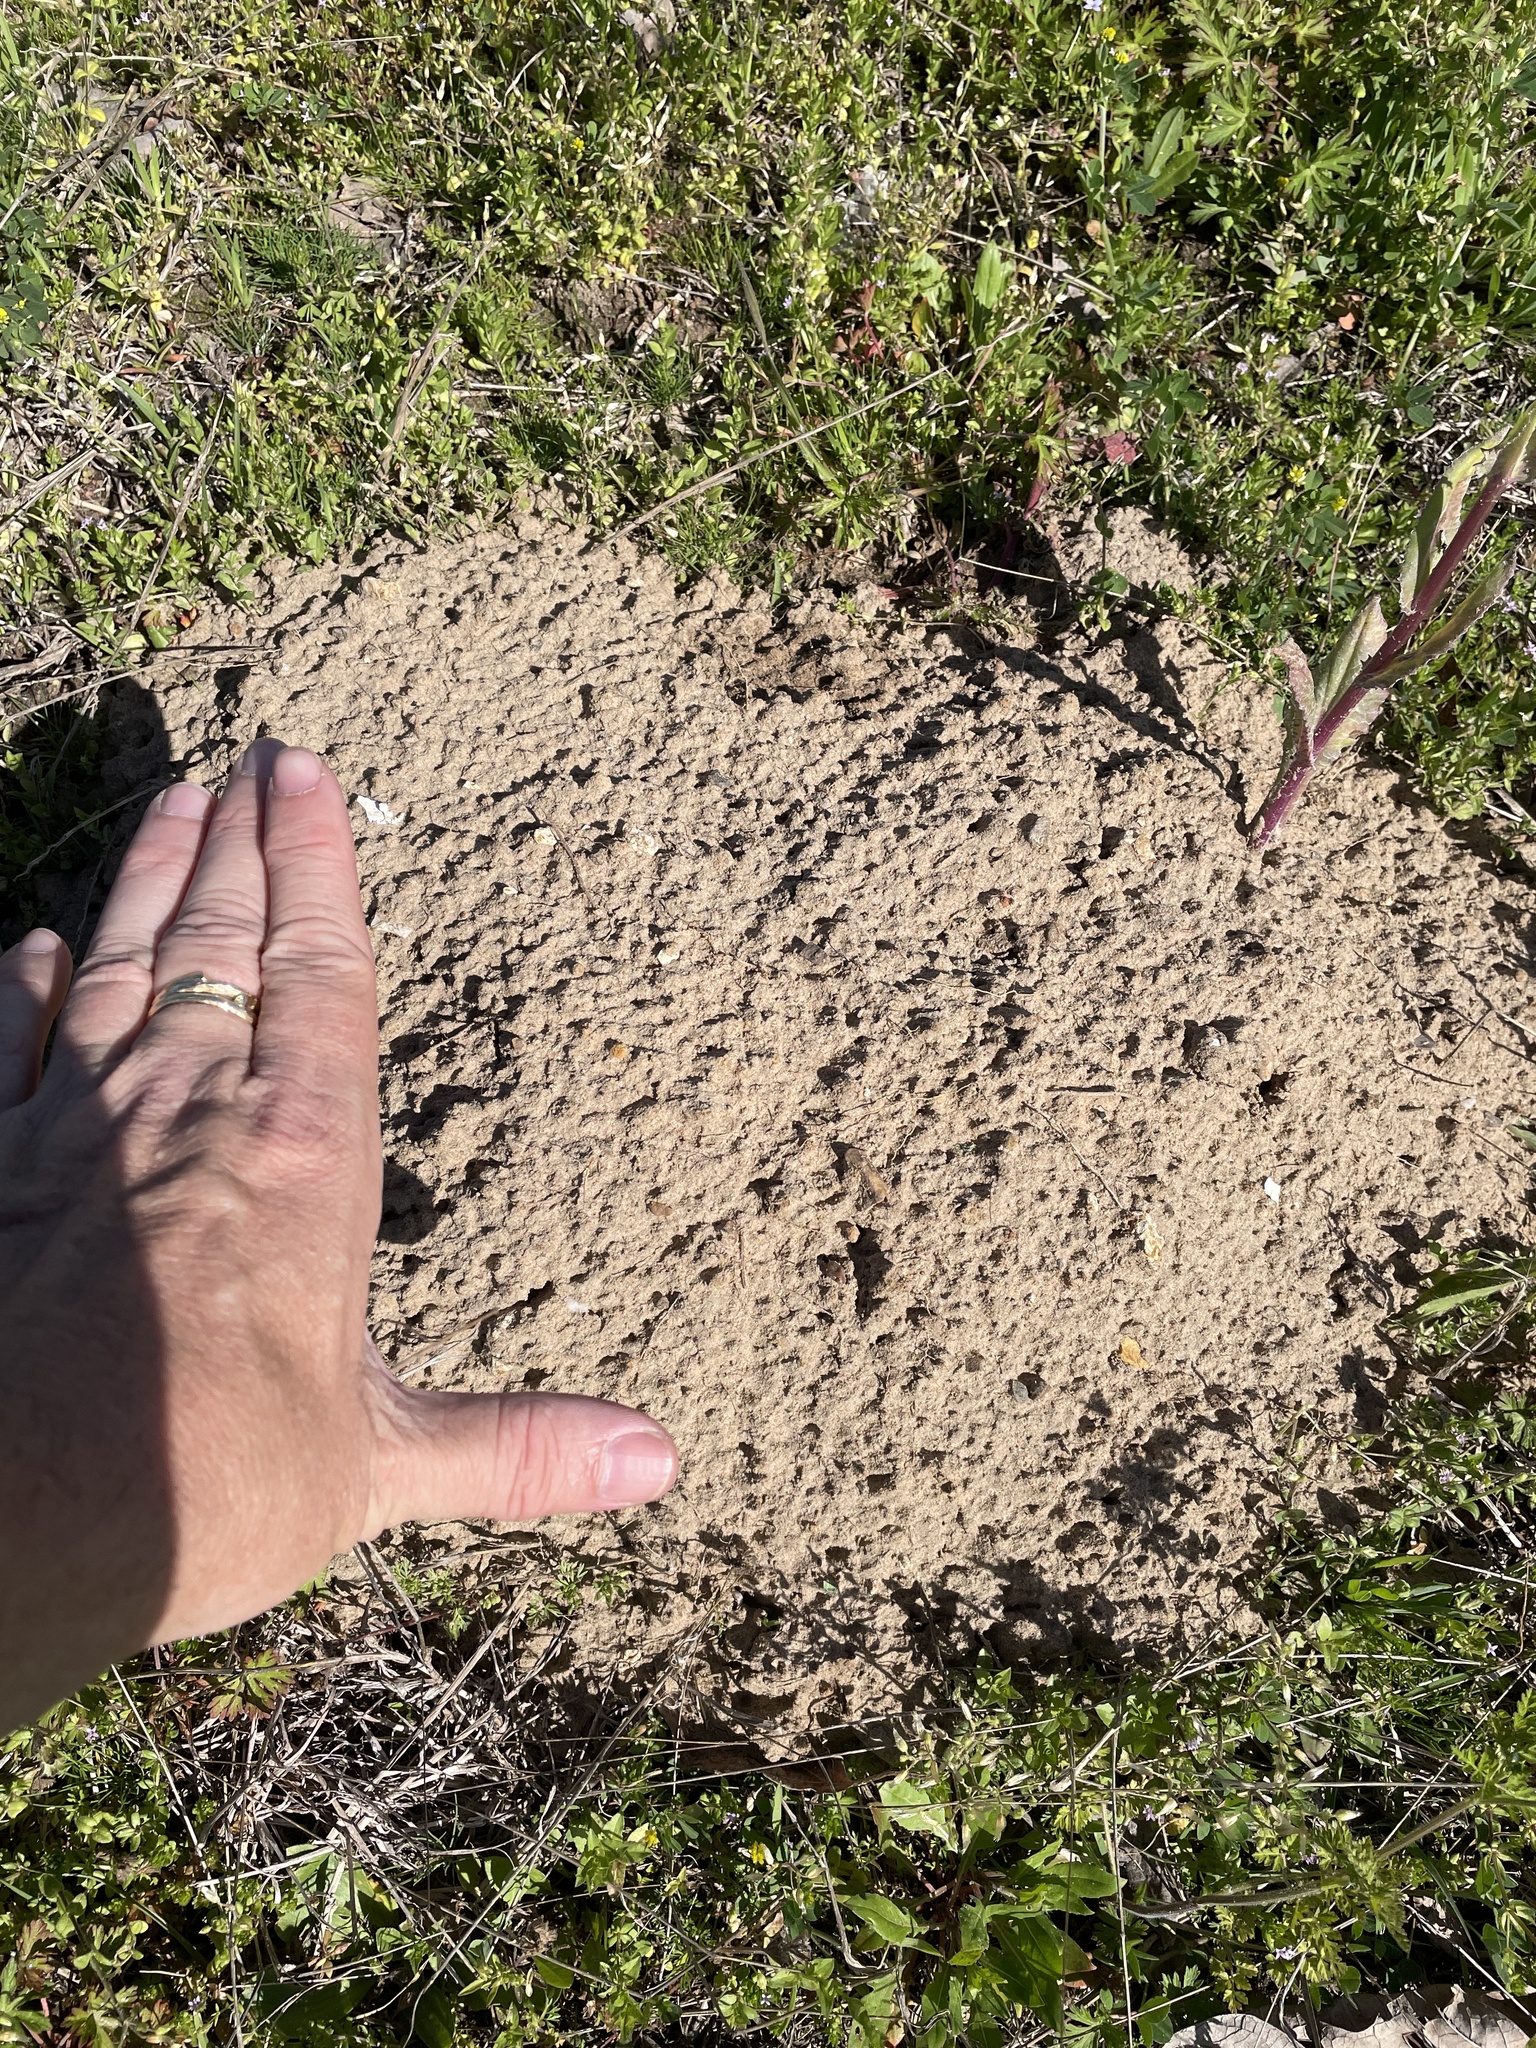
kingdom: Animalia
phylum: Chordata
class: Mammalia
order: Rodentia
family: Geomyidae
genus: Geomys
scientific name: Geomys breviceps
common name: Baird's pocket gopher
